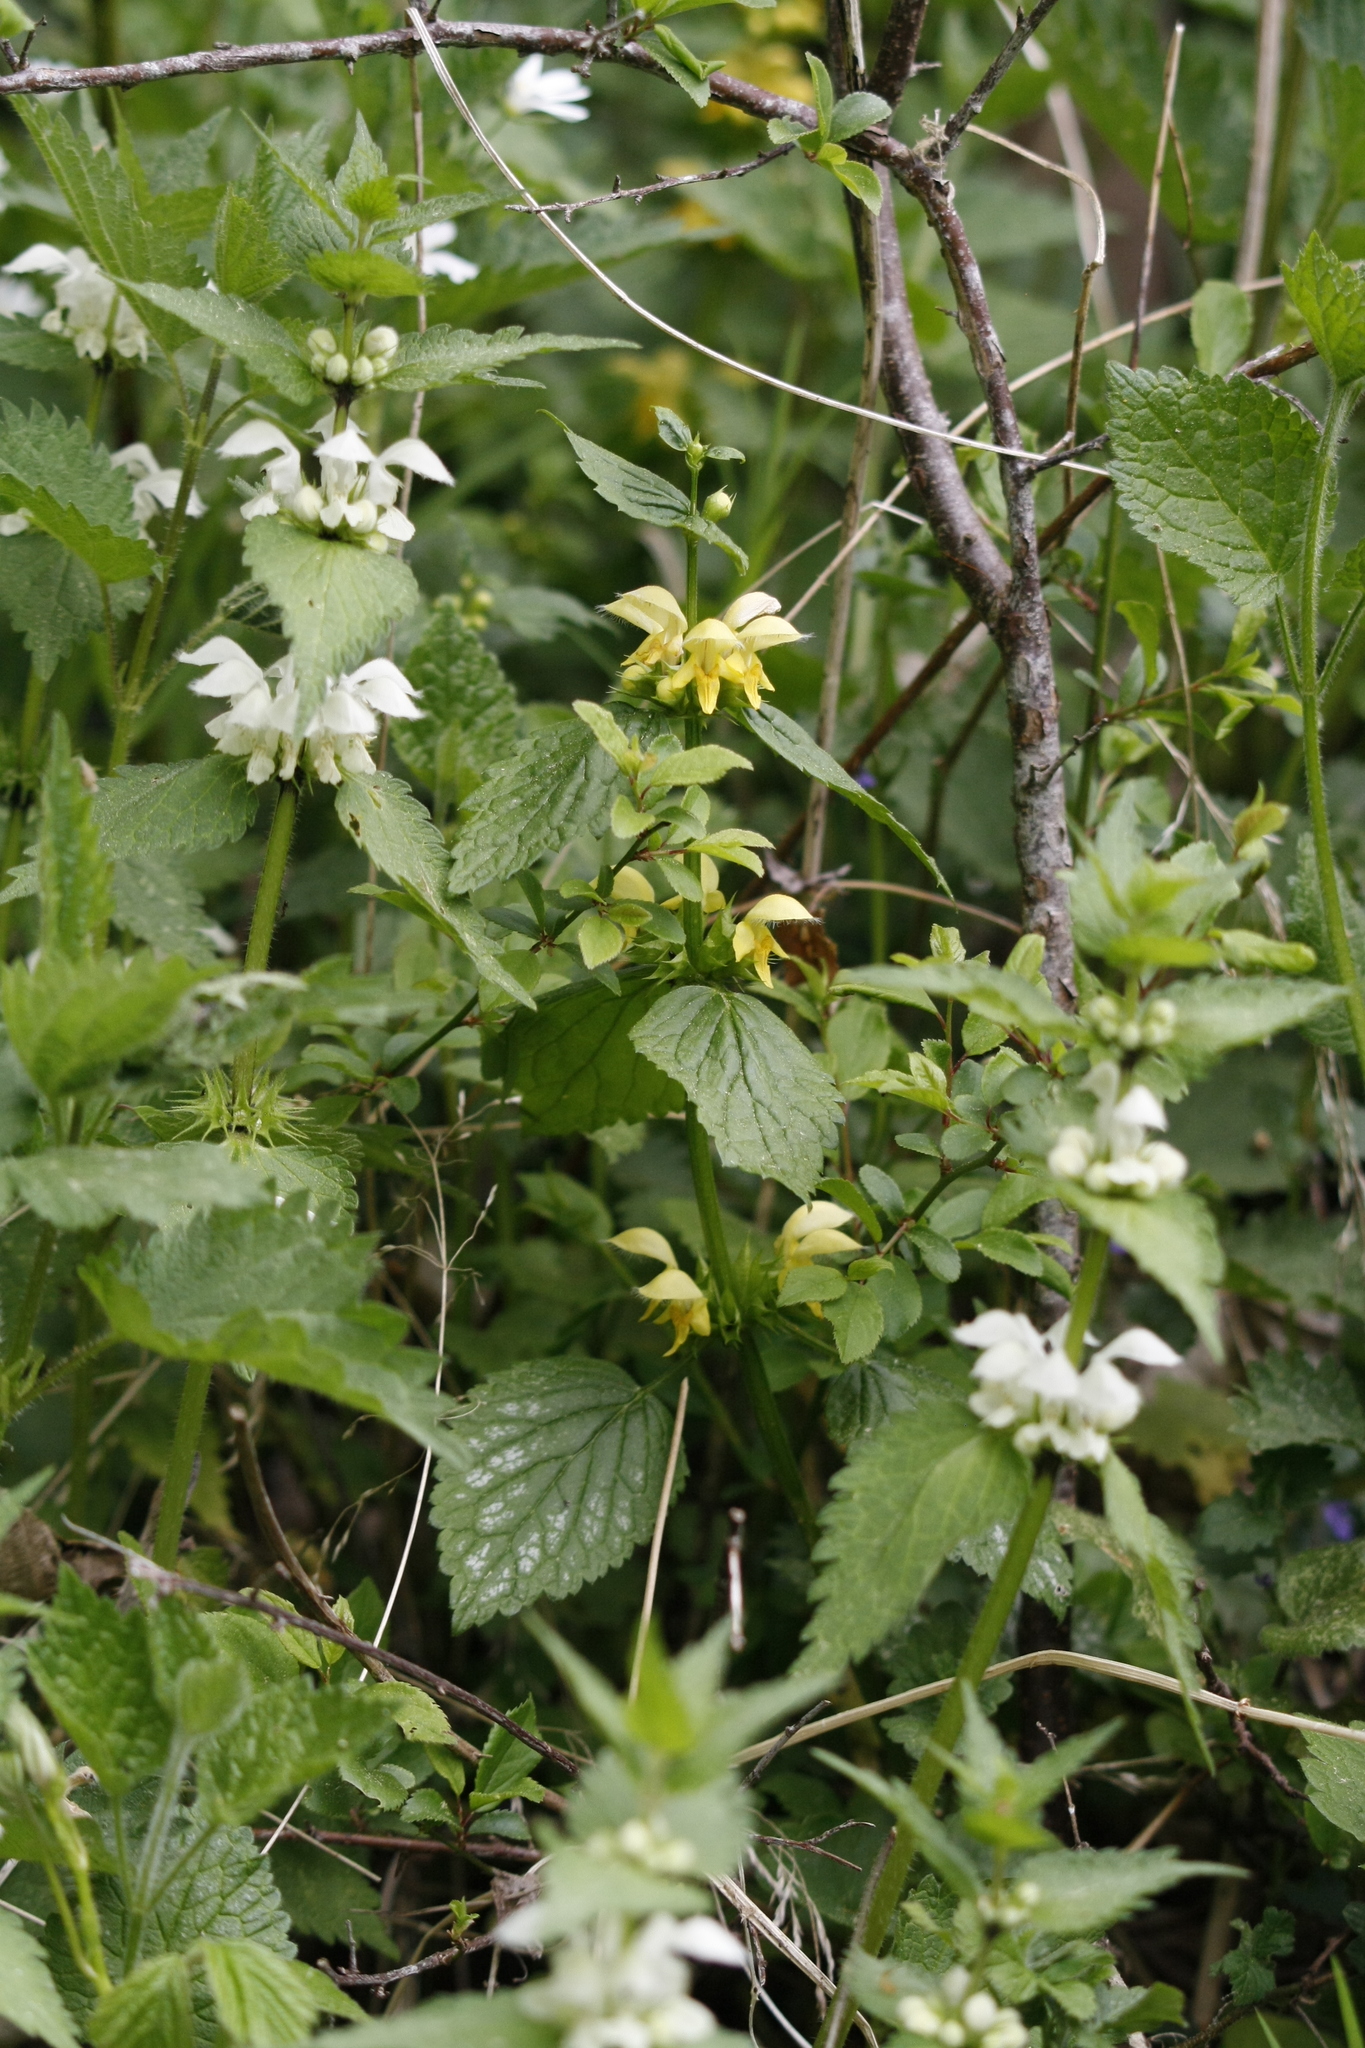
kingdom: Plantae
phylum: Tracheophyta
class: Magnoliopsida
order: Lamiales
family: Lamiaceae
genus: Lamium
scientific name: Lamium galeobdolon
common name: Yellow archangel
